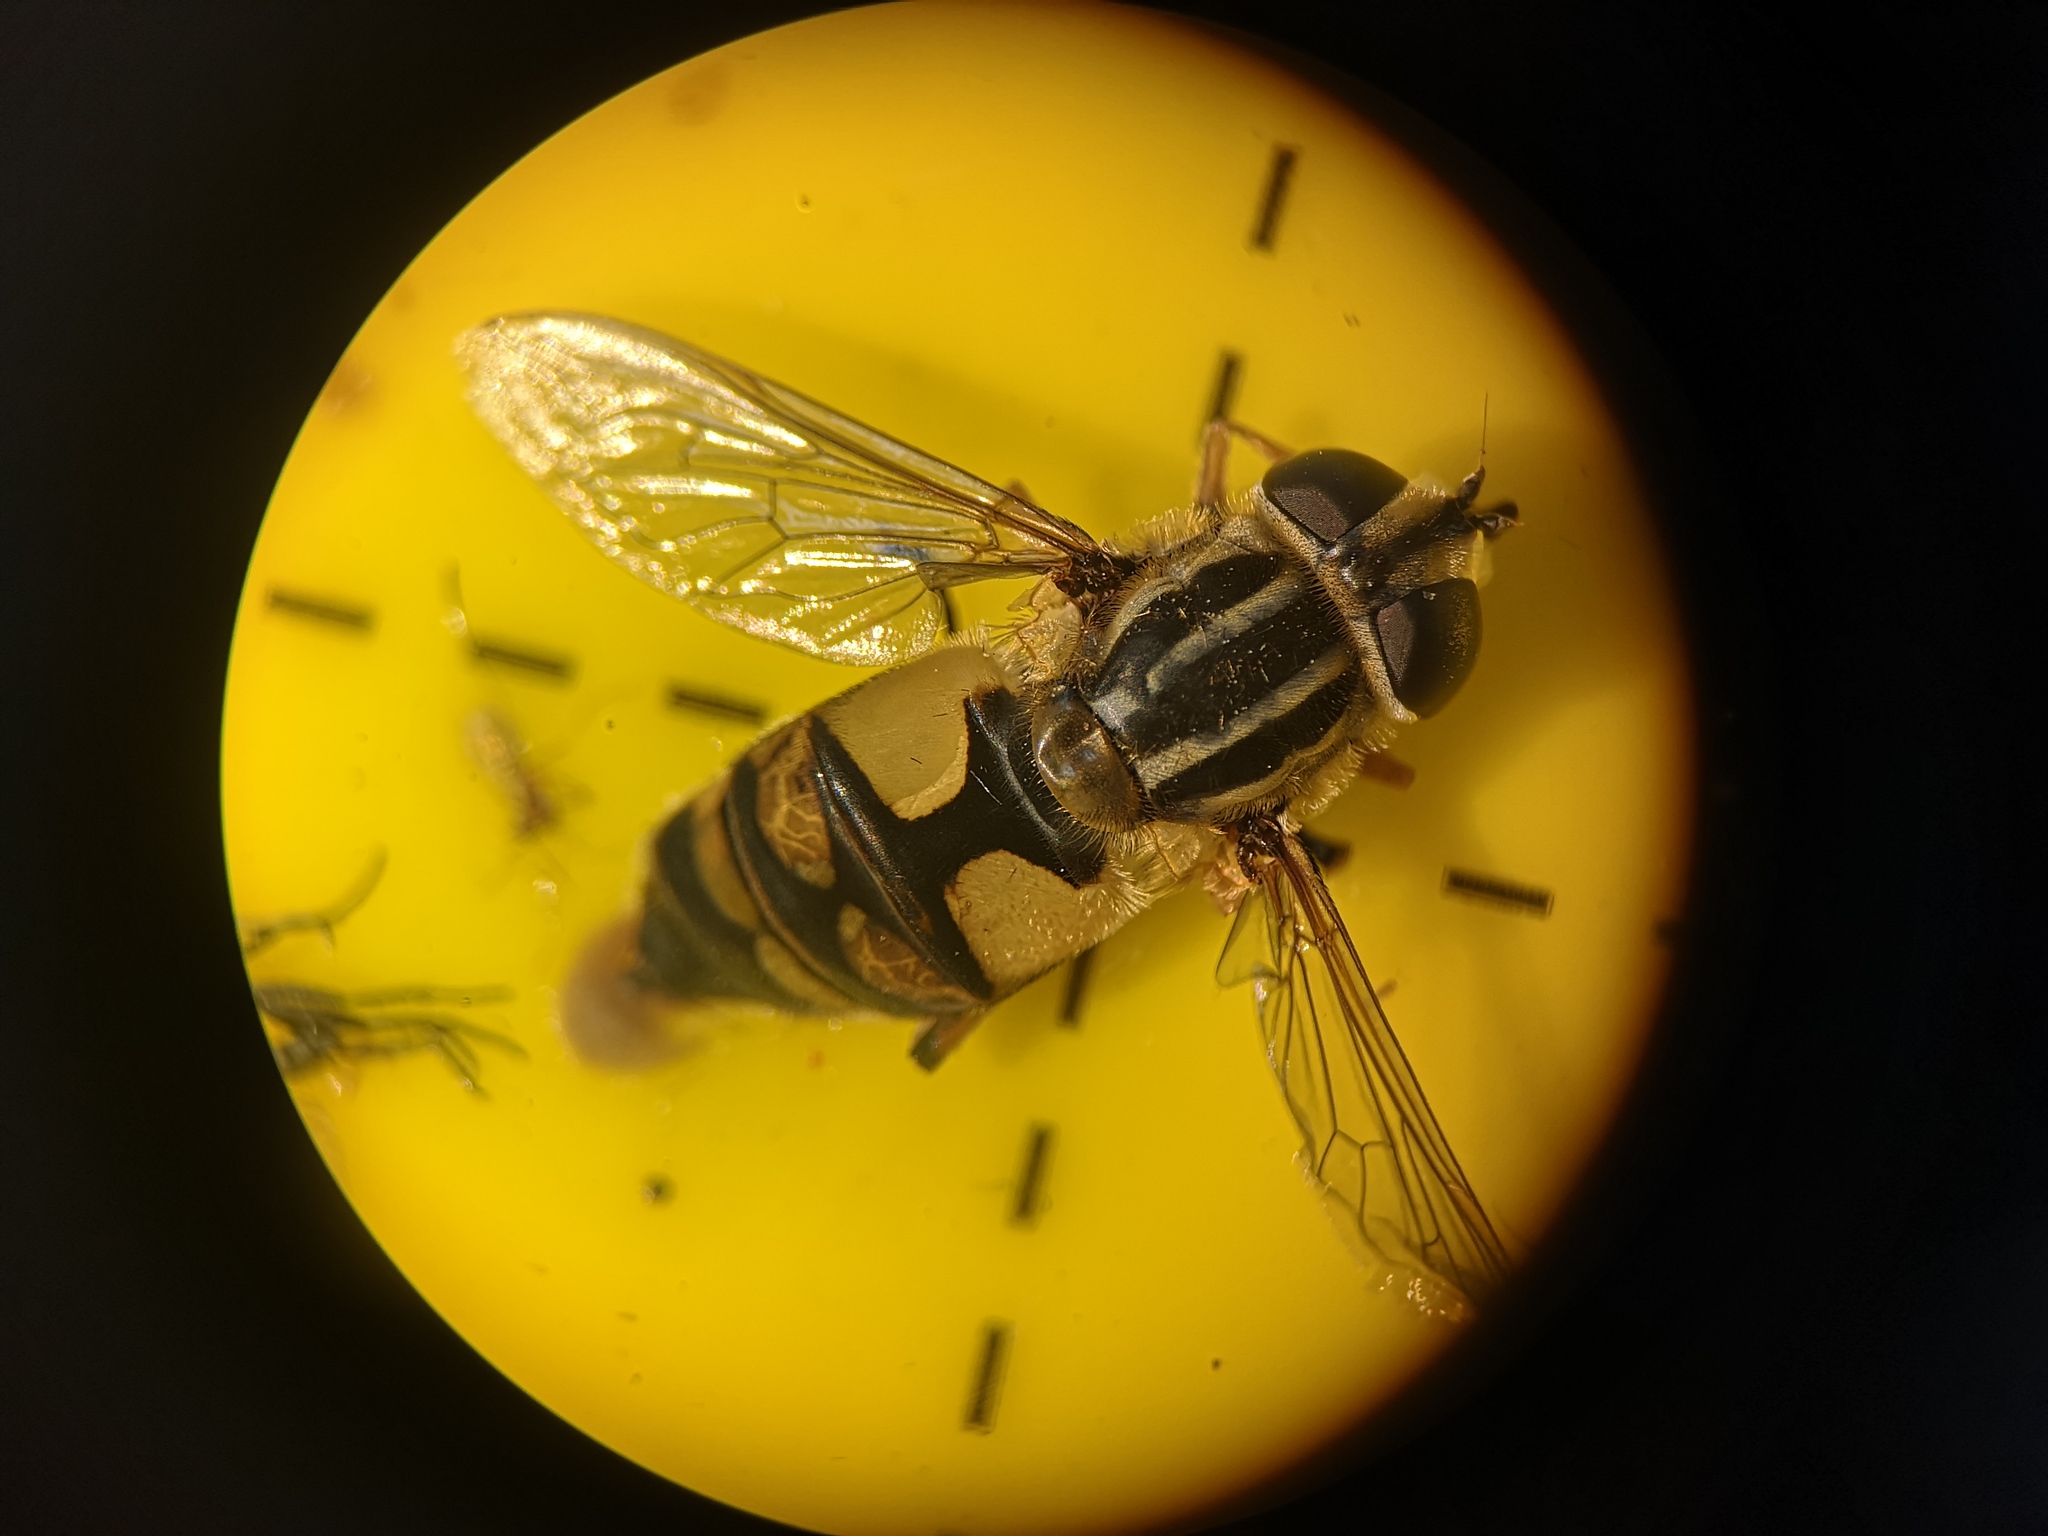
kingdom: Animalia
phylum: Arthropoda
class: Insecta
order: Diptera
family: Syrphidae
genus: Helophilus
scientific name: Helophilus hybridus
